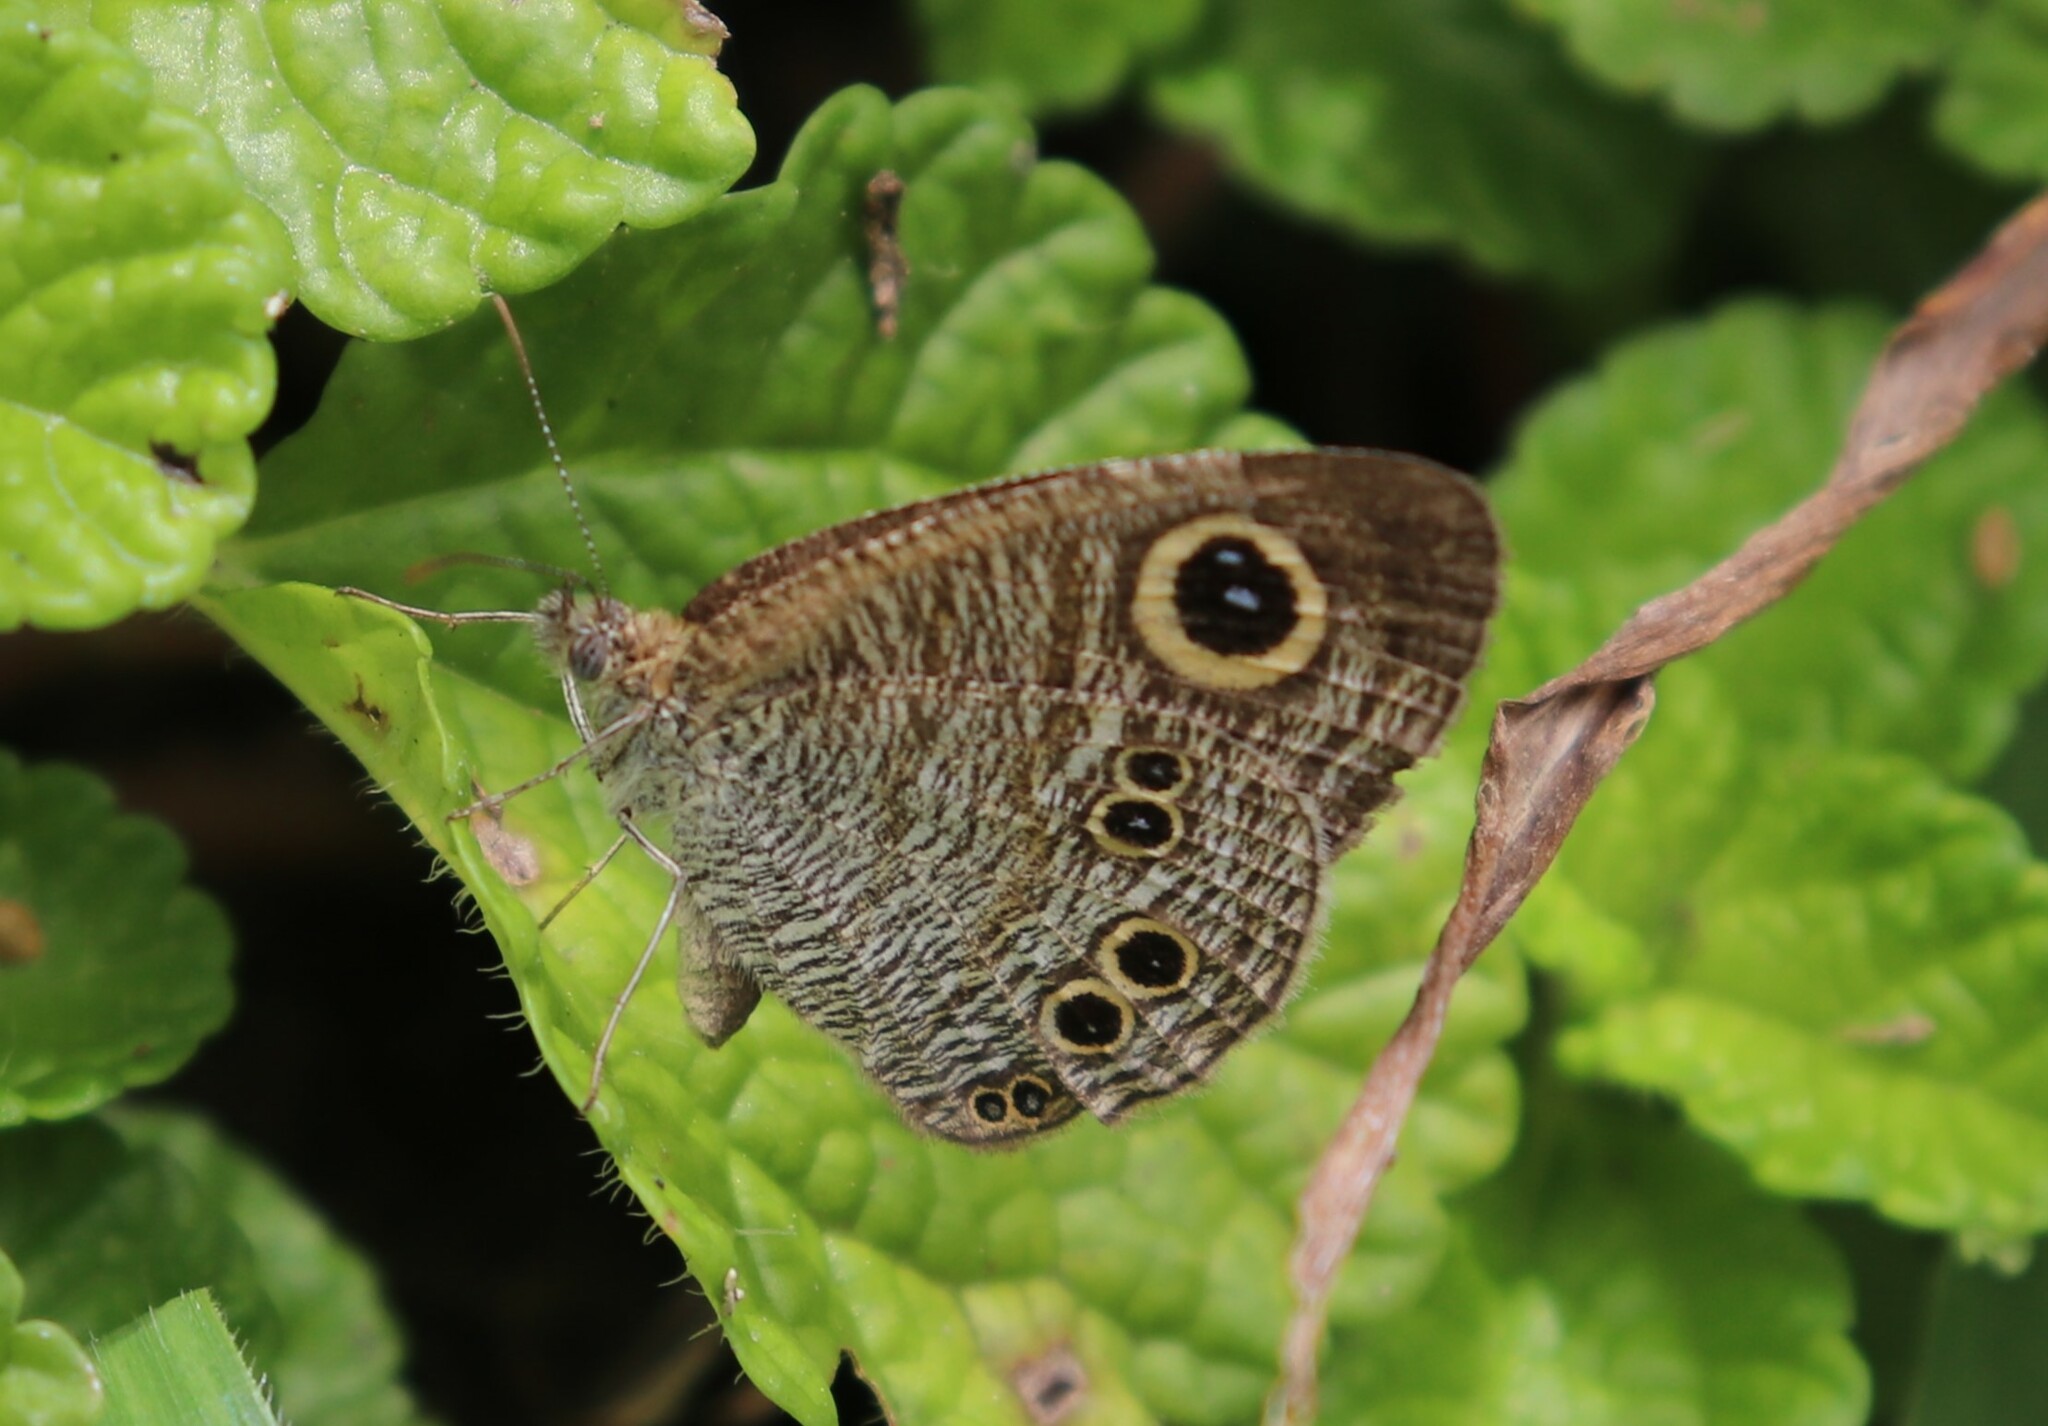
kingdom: Animalia
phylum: Arthropoda
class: Insecta
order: Lepidoptera
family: Nymphalidae
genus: Ypthima
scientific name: Ypthima stellera
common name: Philippine five-ring
